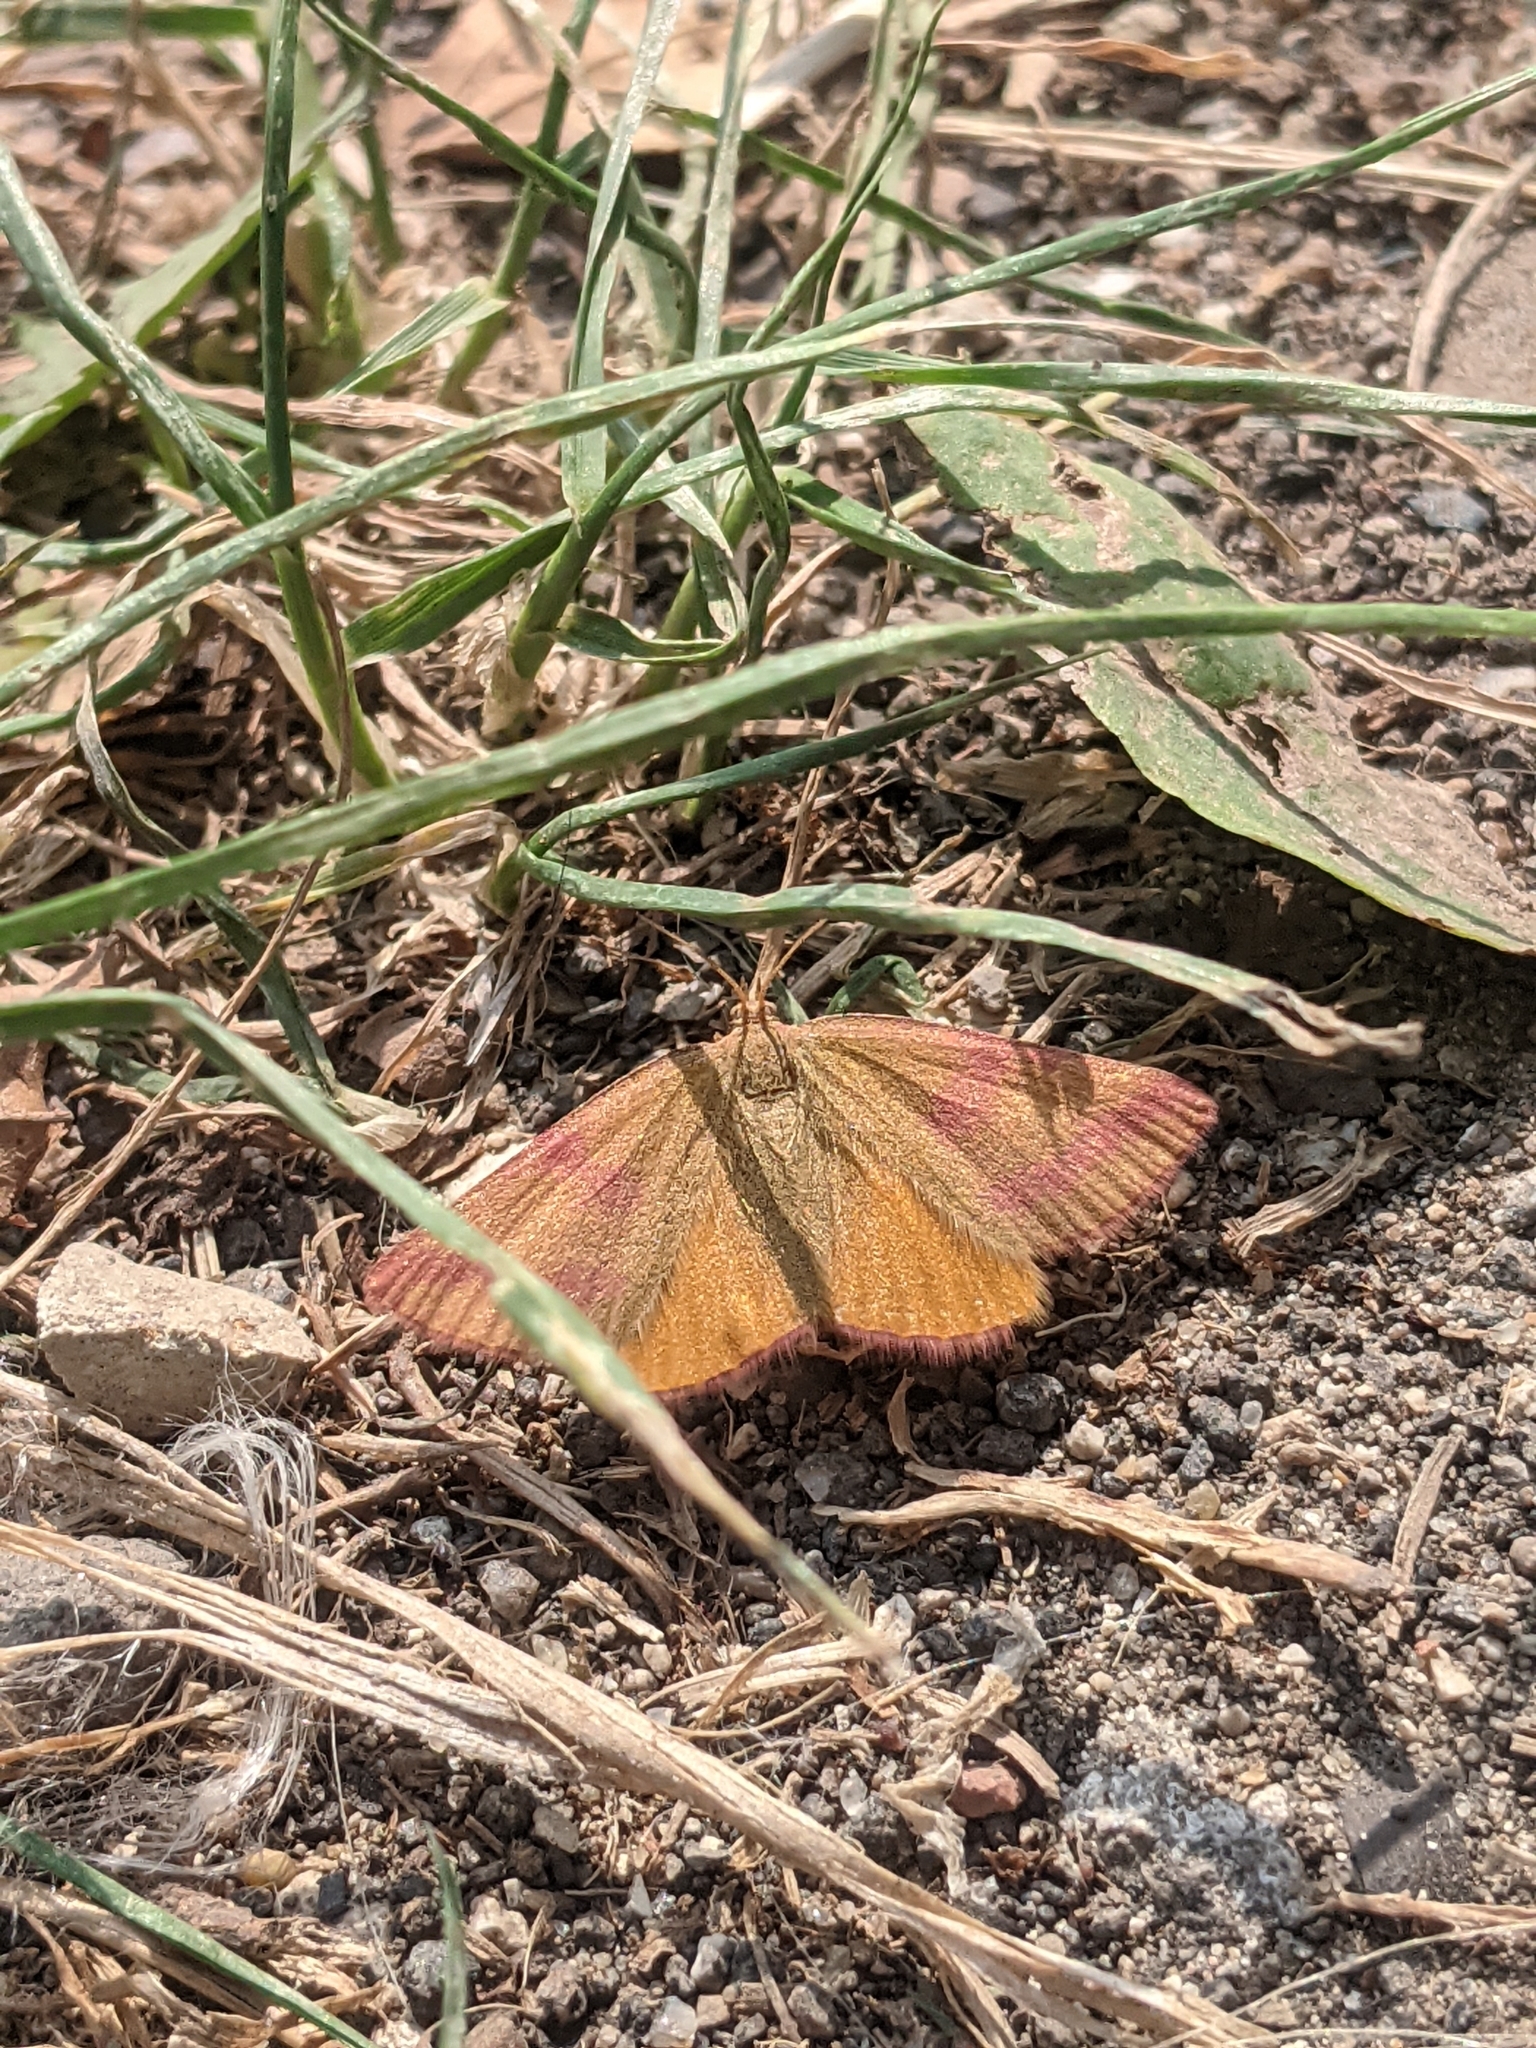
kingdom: Animalia
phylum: Arthropoda
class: Insecta
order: Lepidoptera
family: Geometridae
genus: Lythria
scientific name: Lythria purpuraria
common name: Purple-barred yellow
